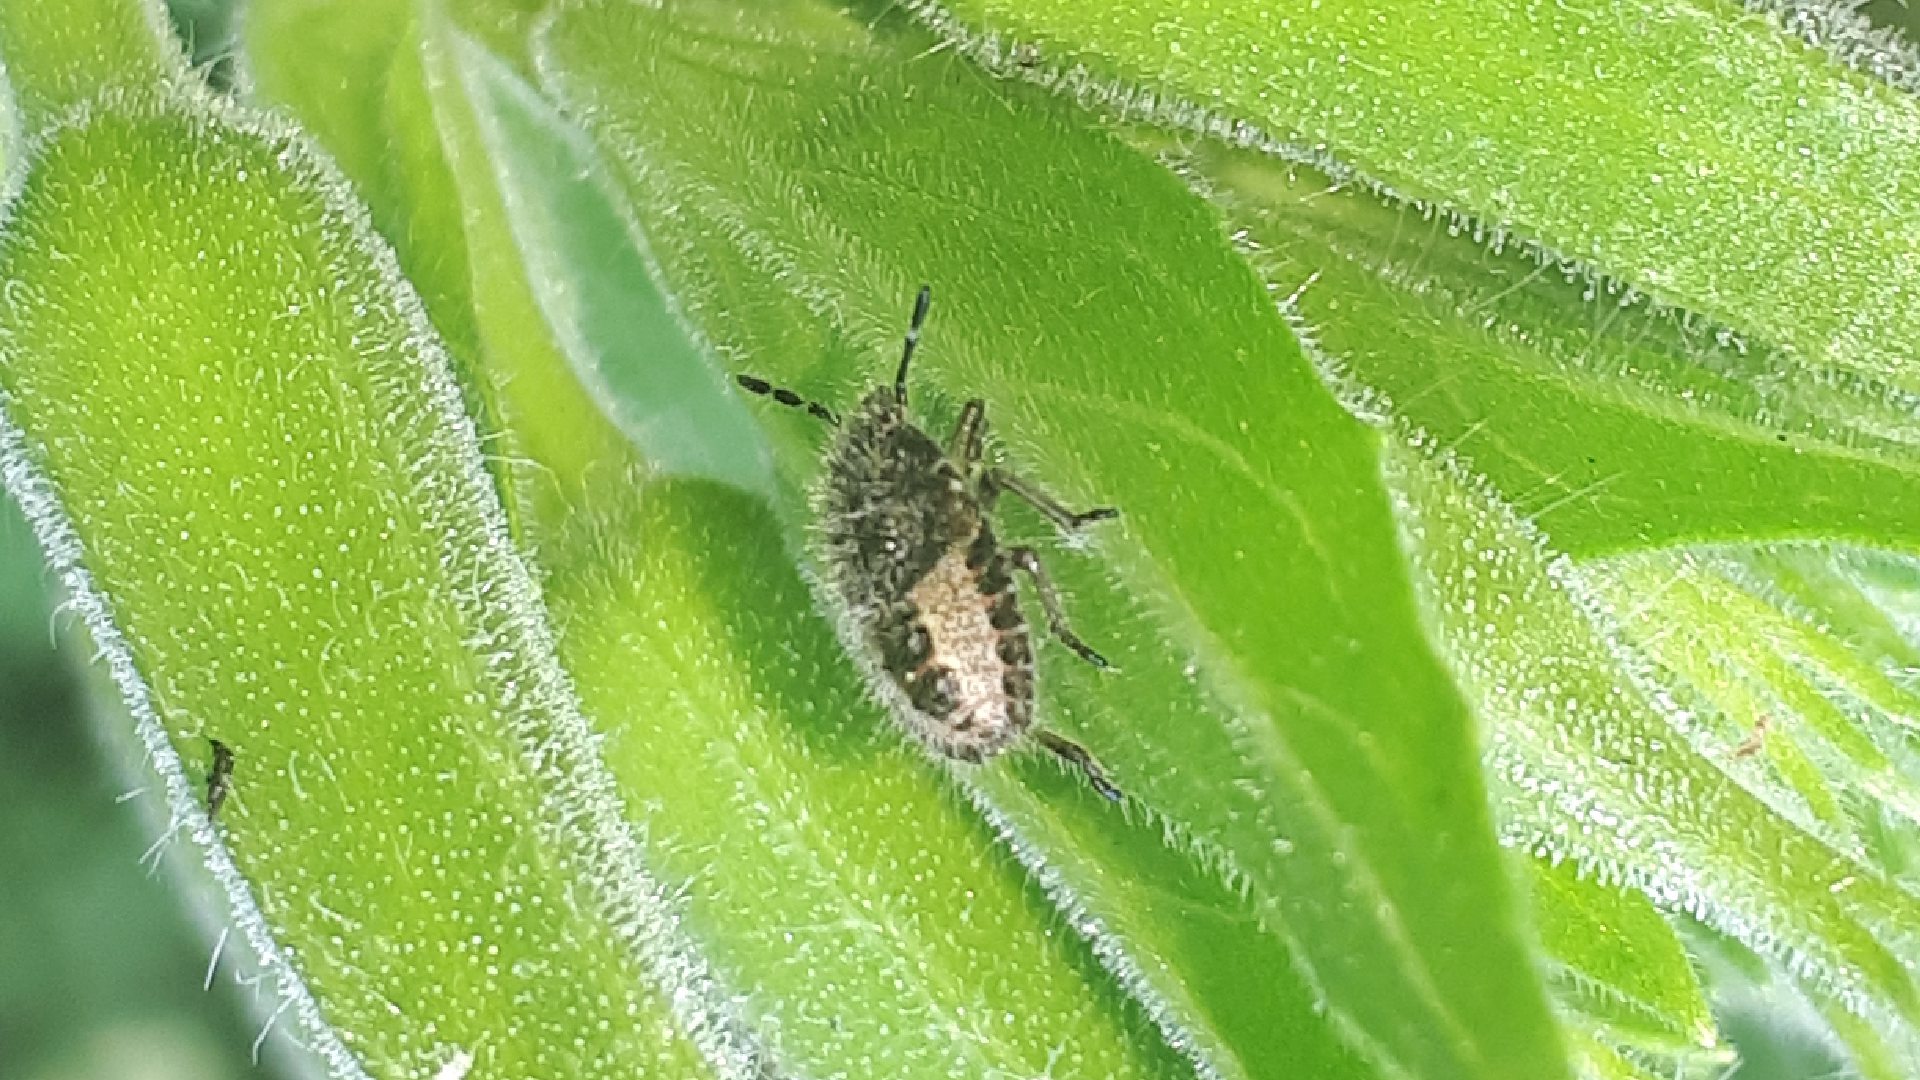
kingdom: Animalia
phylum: Arthropoda
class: Insecta
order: Hemiptera
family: Pentatomidae
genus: Dolycoris
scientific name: Dolycoris baccarum
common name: Sloe bug
